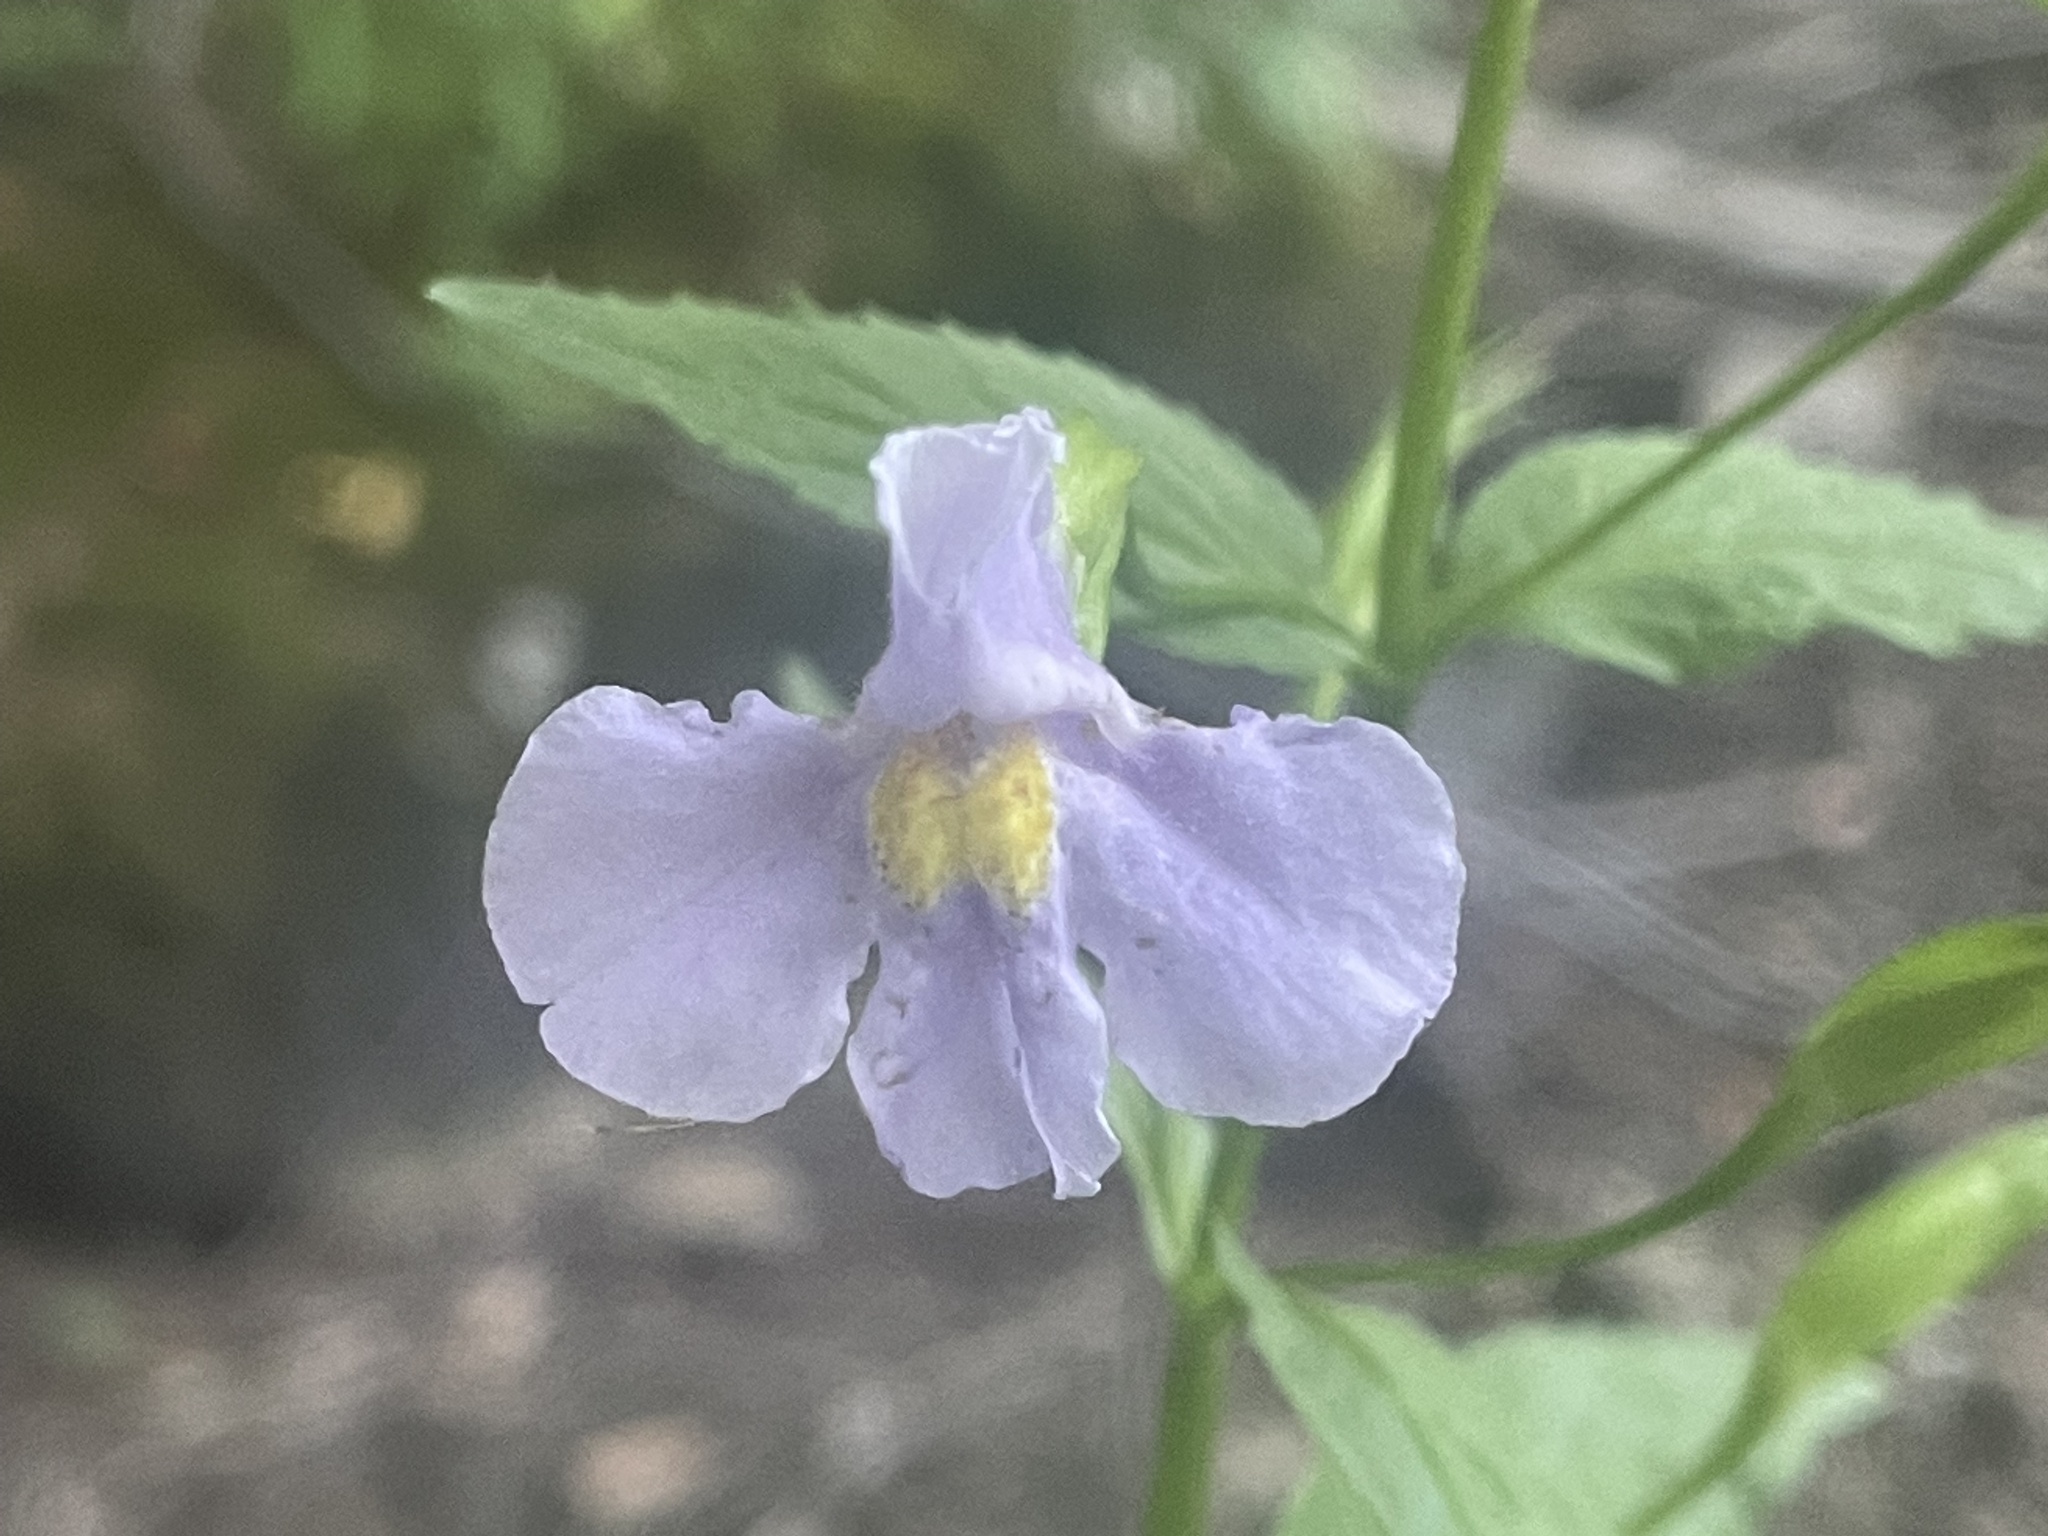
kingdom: Plantae
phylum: Tracheophyta
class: Magnoliopsida
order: Lamiales
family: Phrymaceae
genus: Mimulus
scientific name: Mimulus ringens
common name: Allegheny monkeyflower
